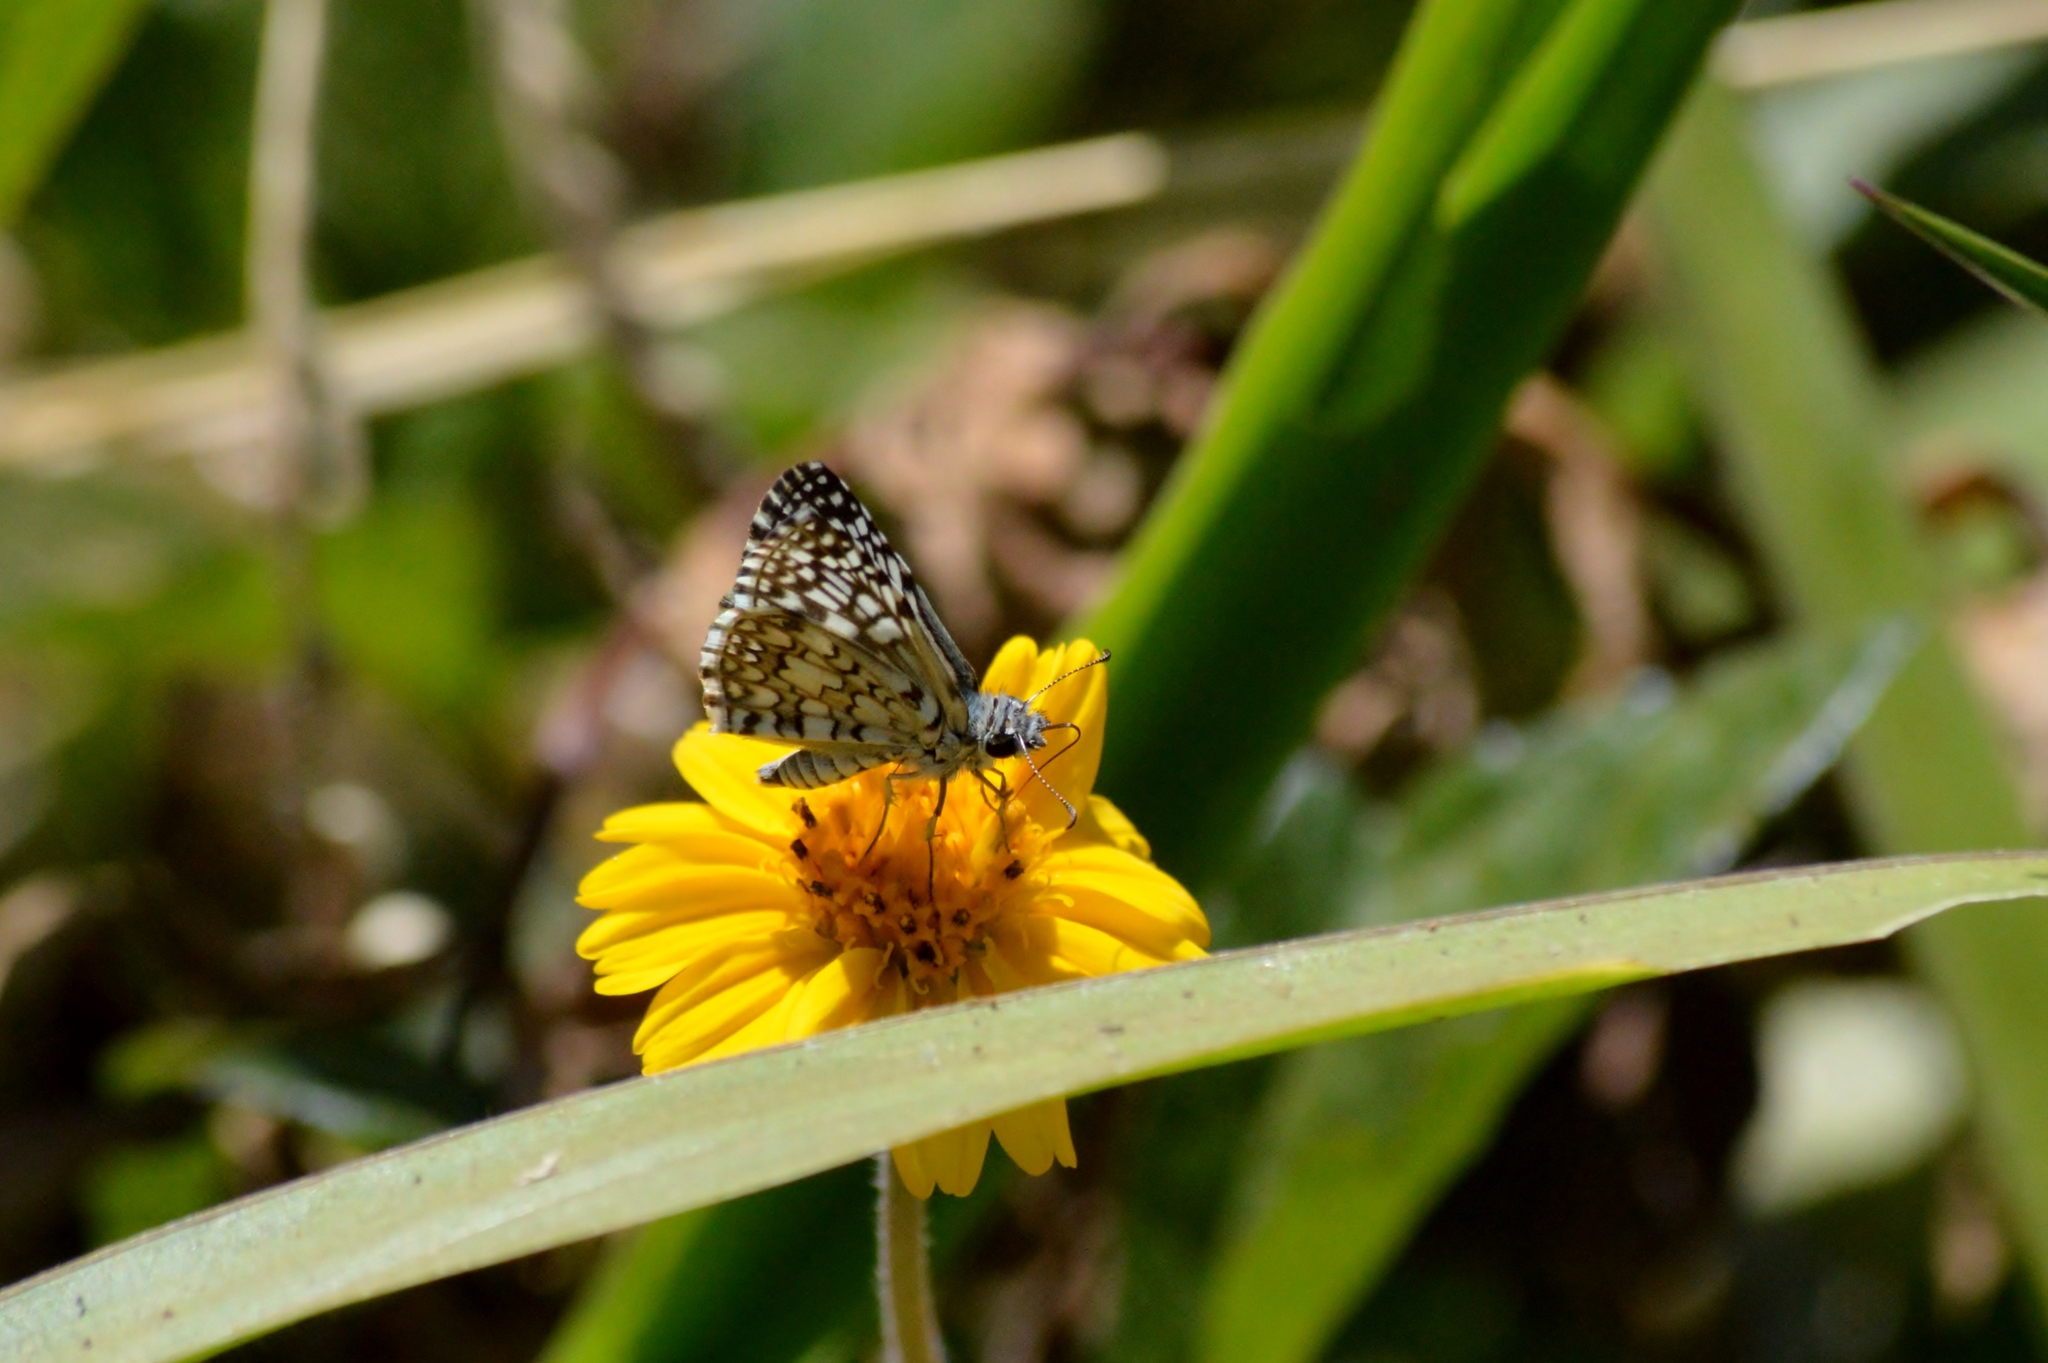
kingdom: Animalia
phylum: Arthropoda
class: Insecta
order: Lepidoptera
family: Hesperiidae
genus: Pyrgus
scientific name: Pyrgus oileus
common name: Tropical checkered-skipper
